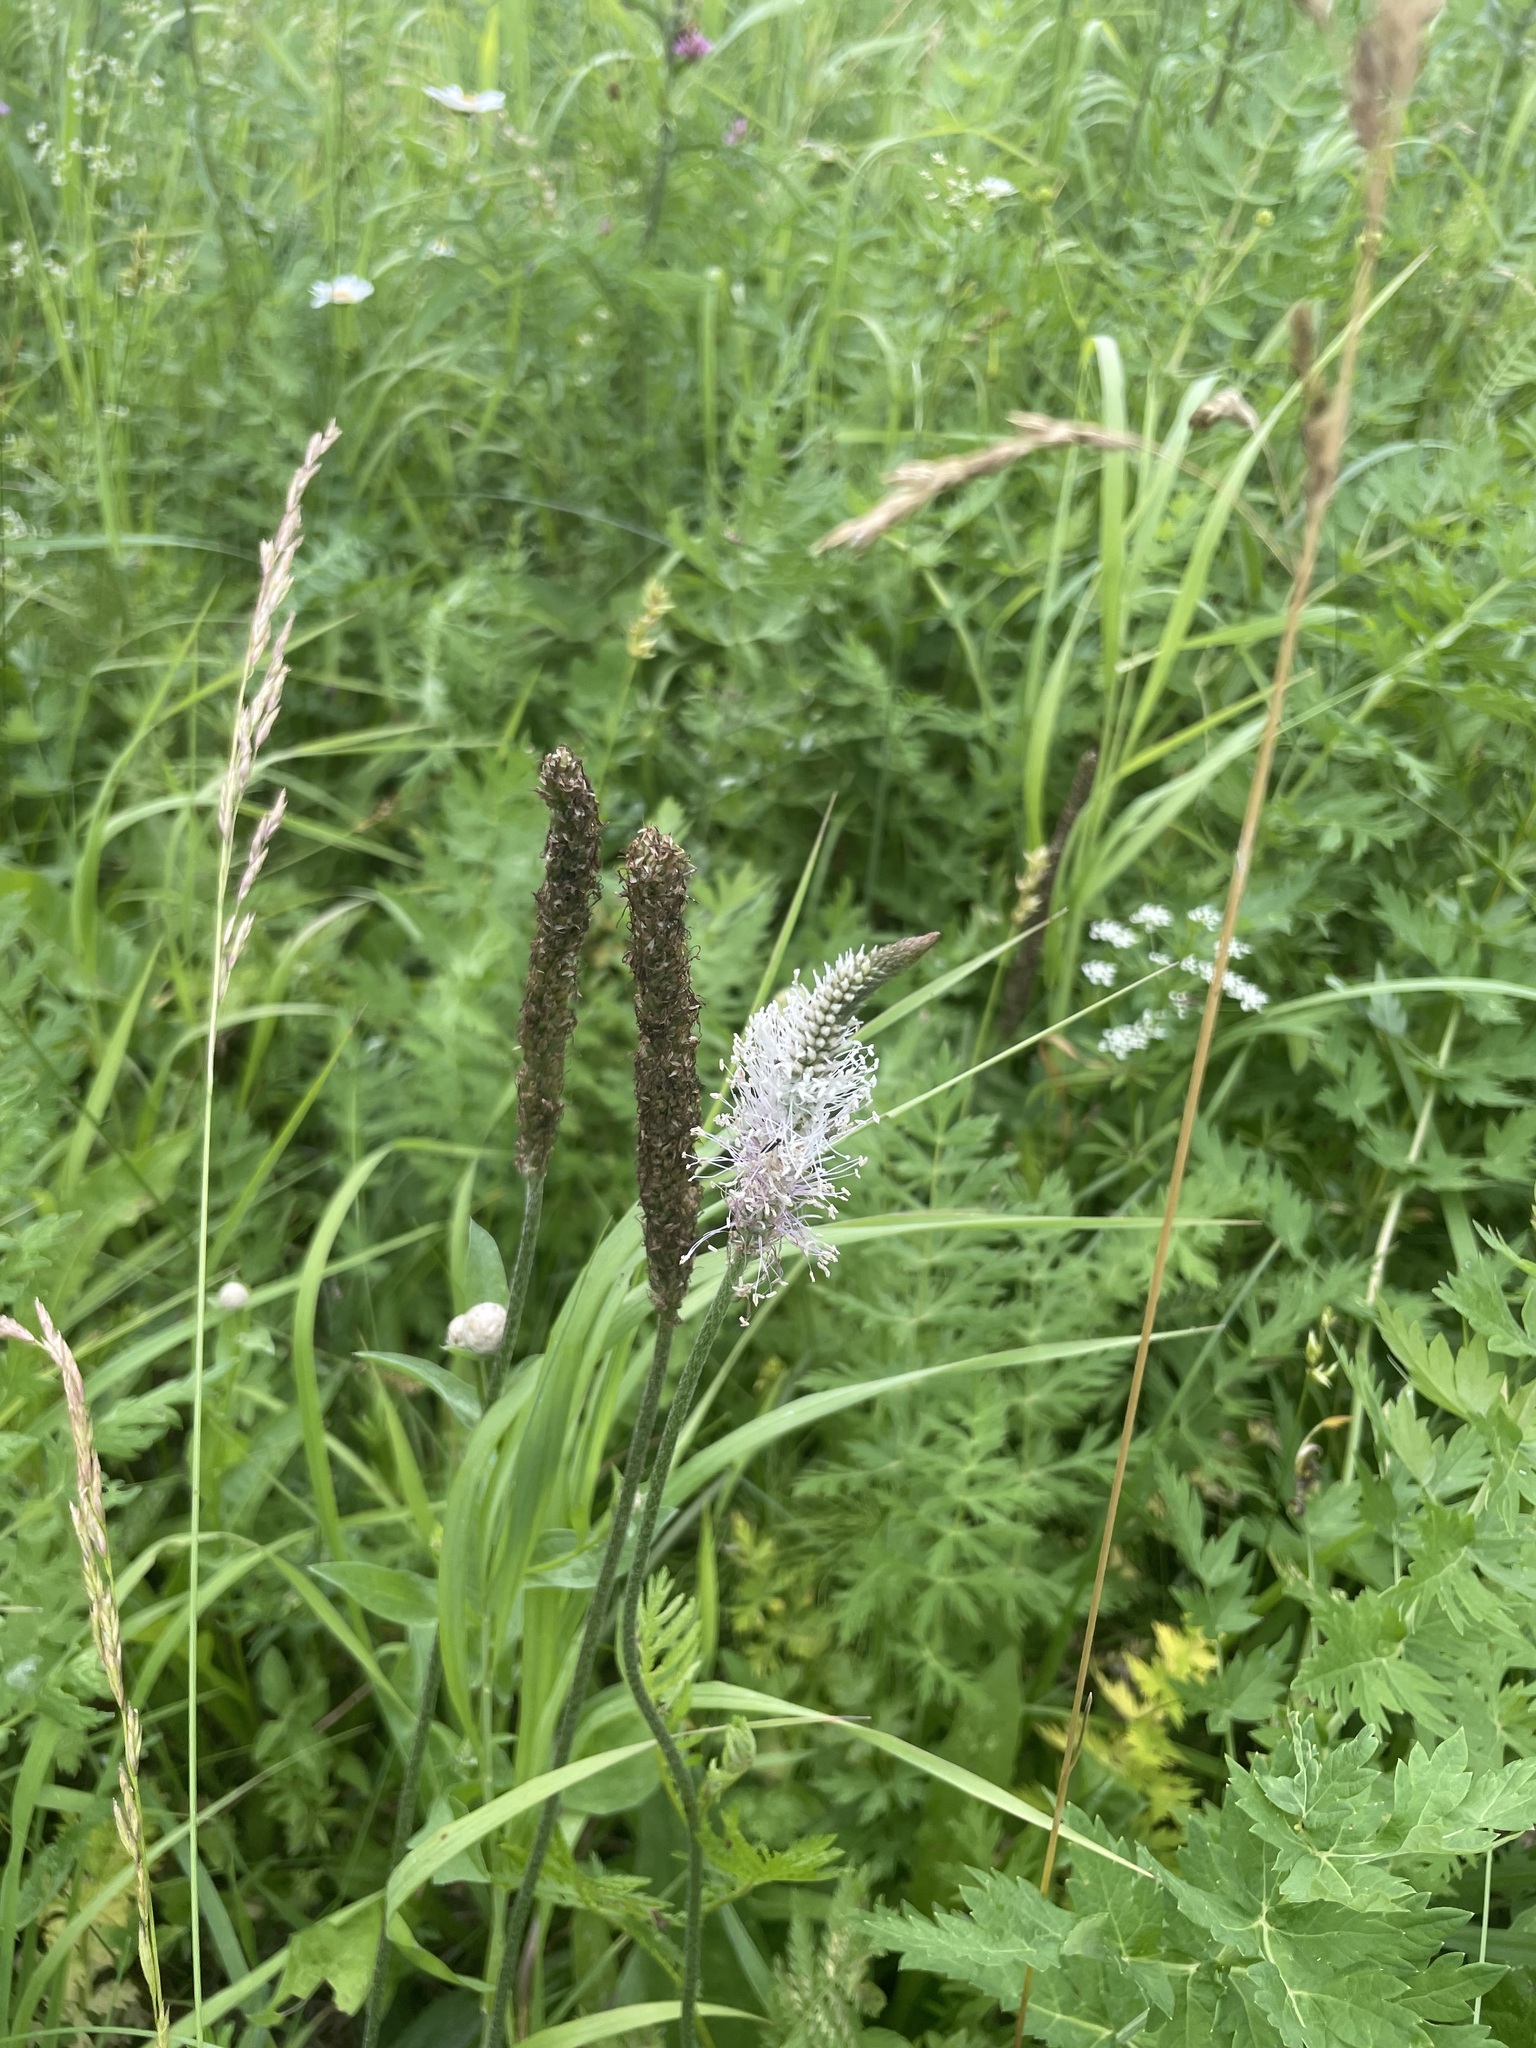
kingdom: Plantae
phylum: Tracheophyta
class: Magnoliopsida
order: Lamiales
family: Plantaginaceae
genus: Plantago
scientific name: Plantago urvillei
